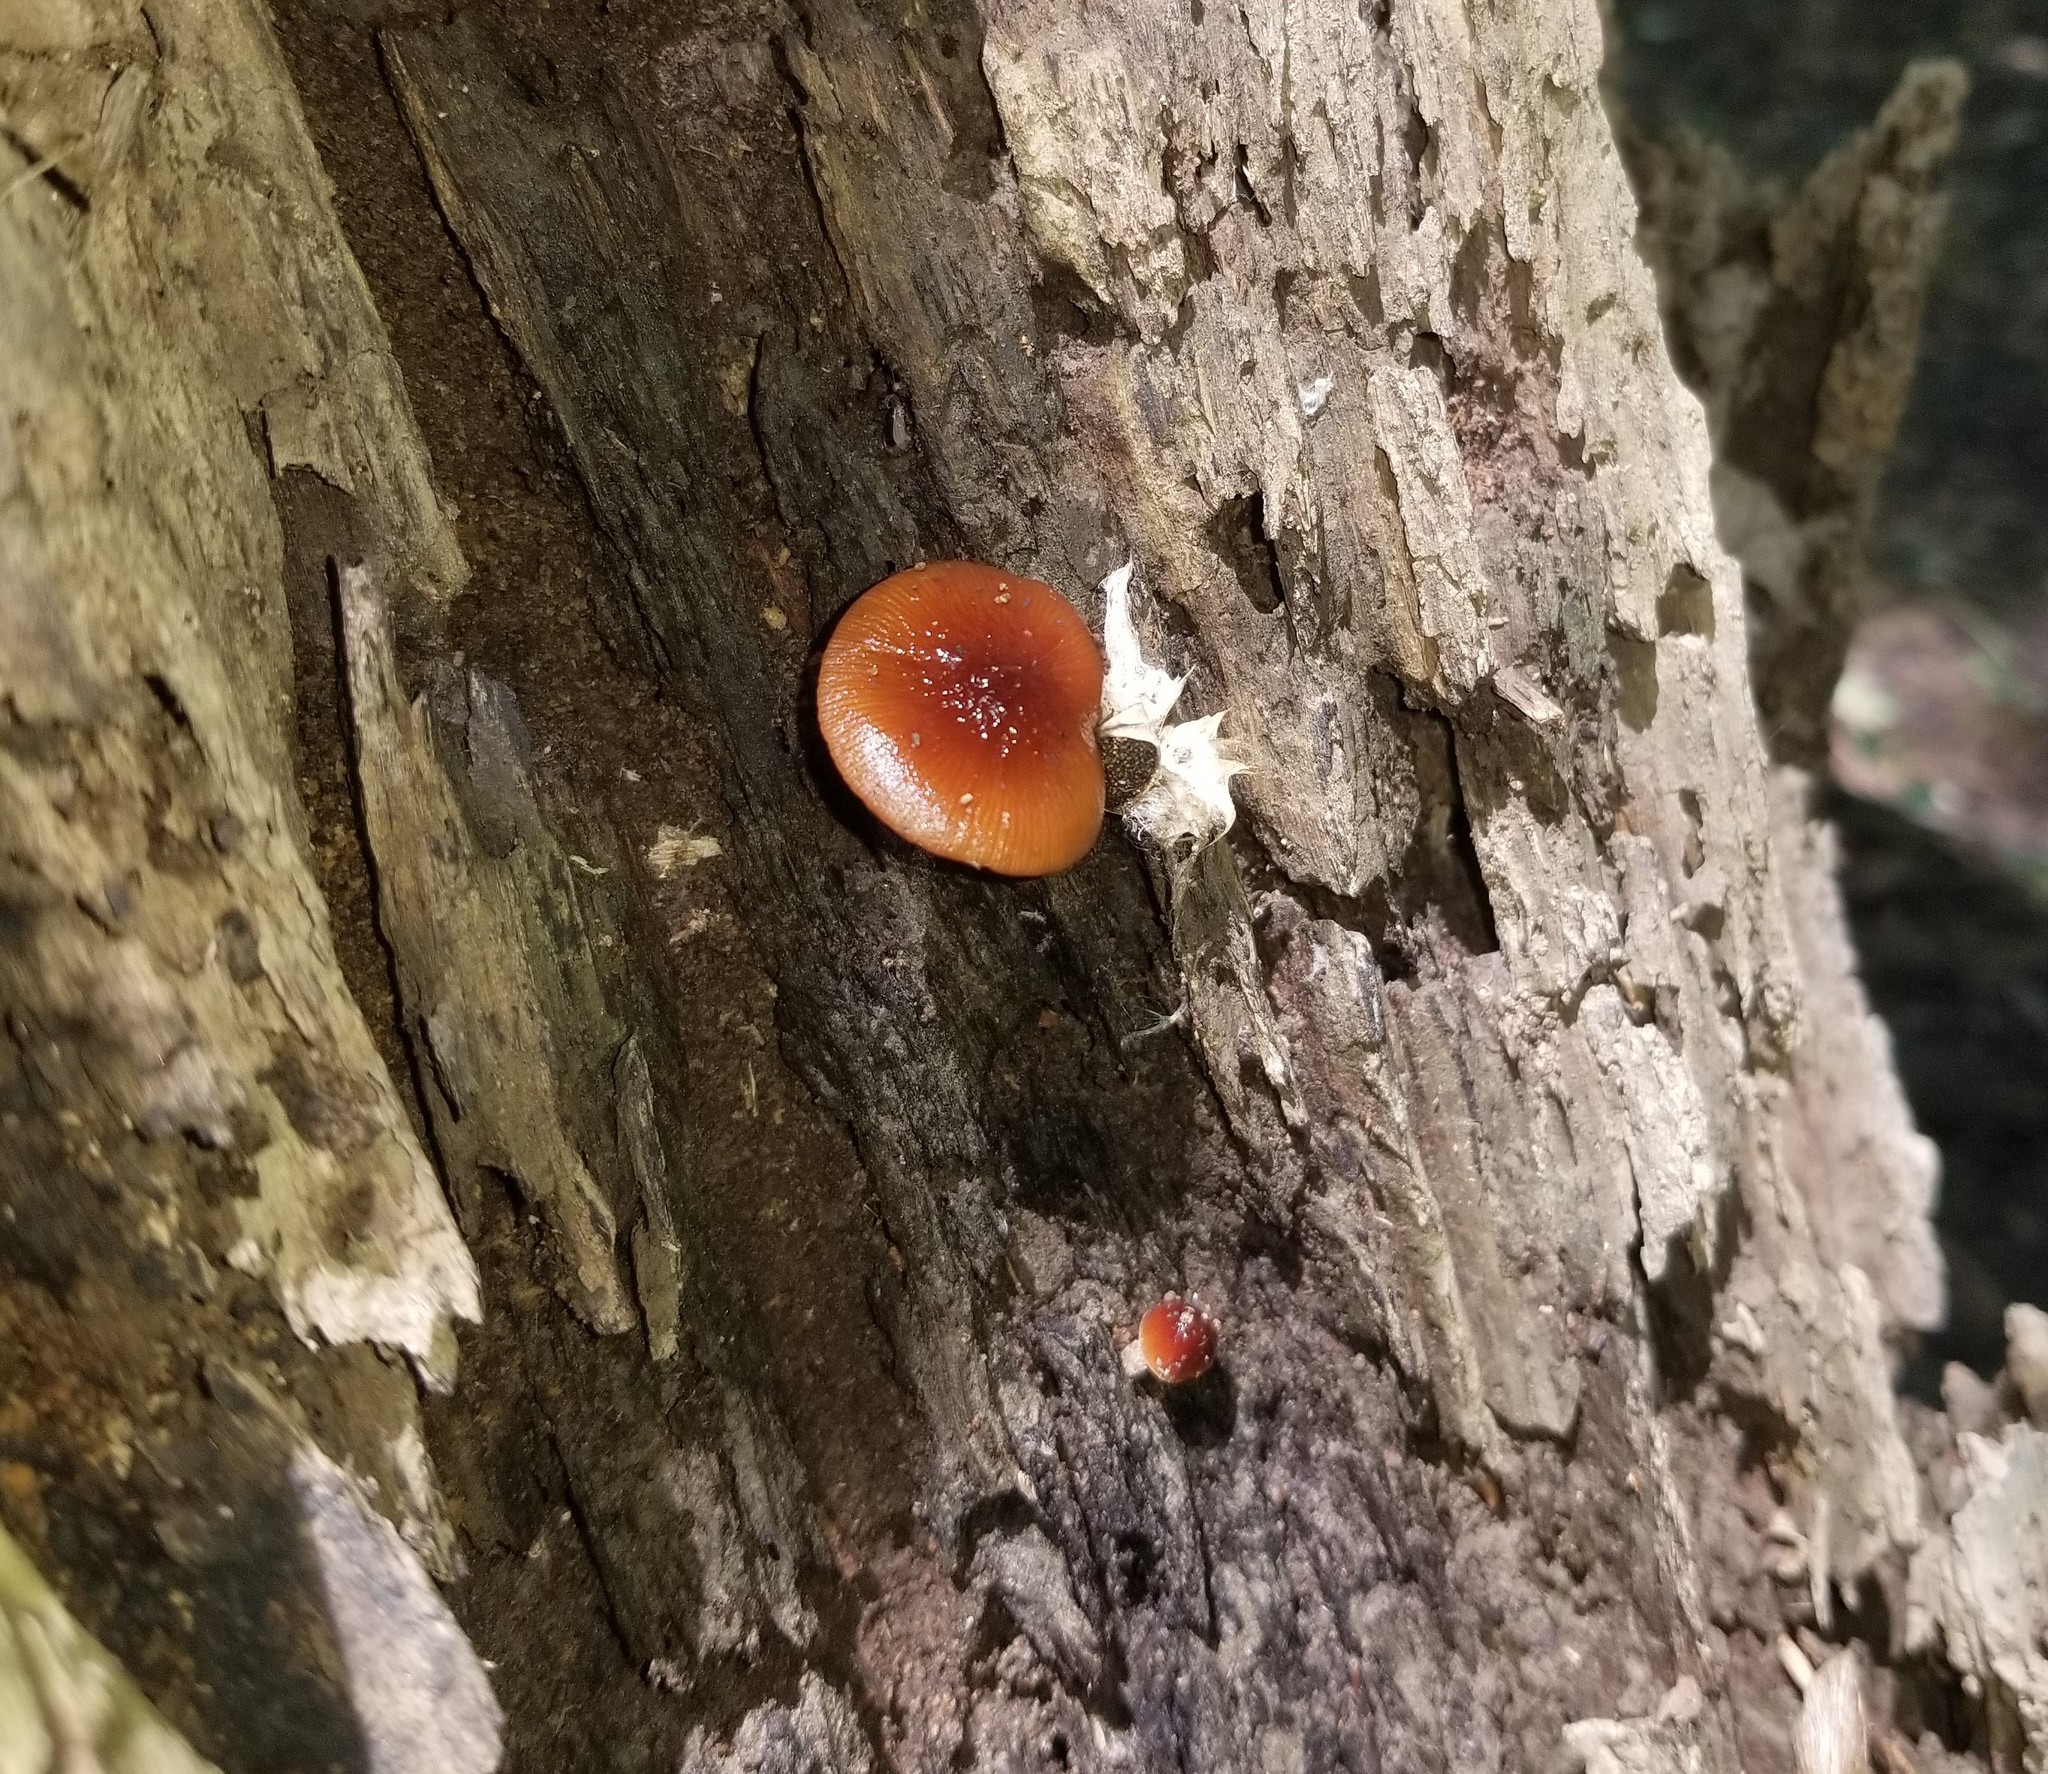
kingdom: Fungi
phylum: Basidiomycota
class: Agaricomycetes
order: Agaricales
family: Bolbitiaceae
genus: Bolbitius
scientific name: Bolbitius callistus
